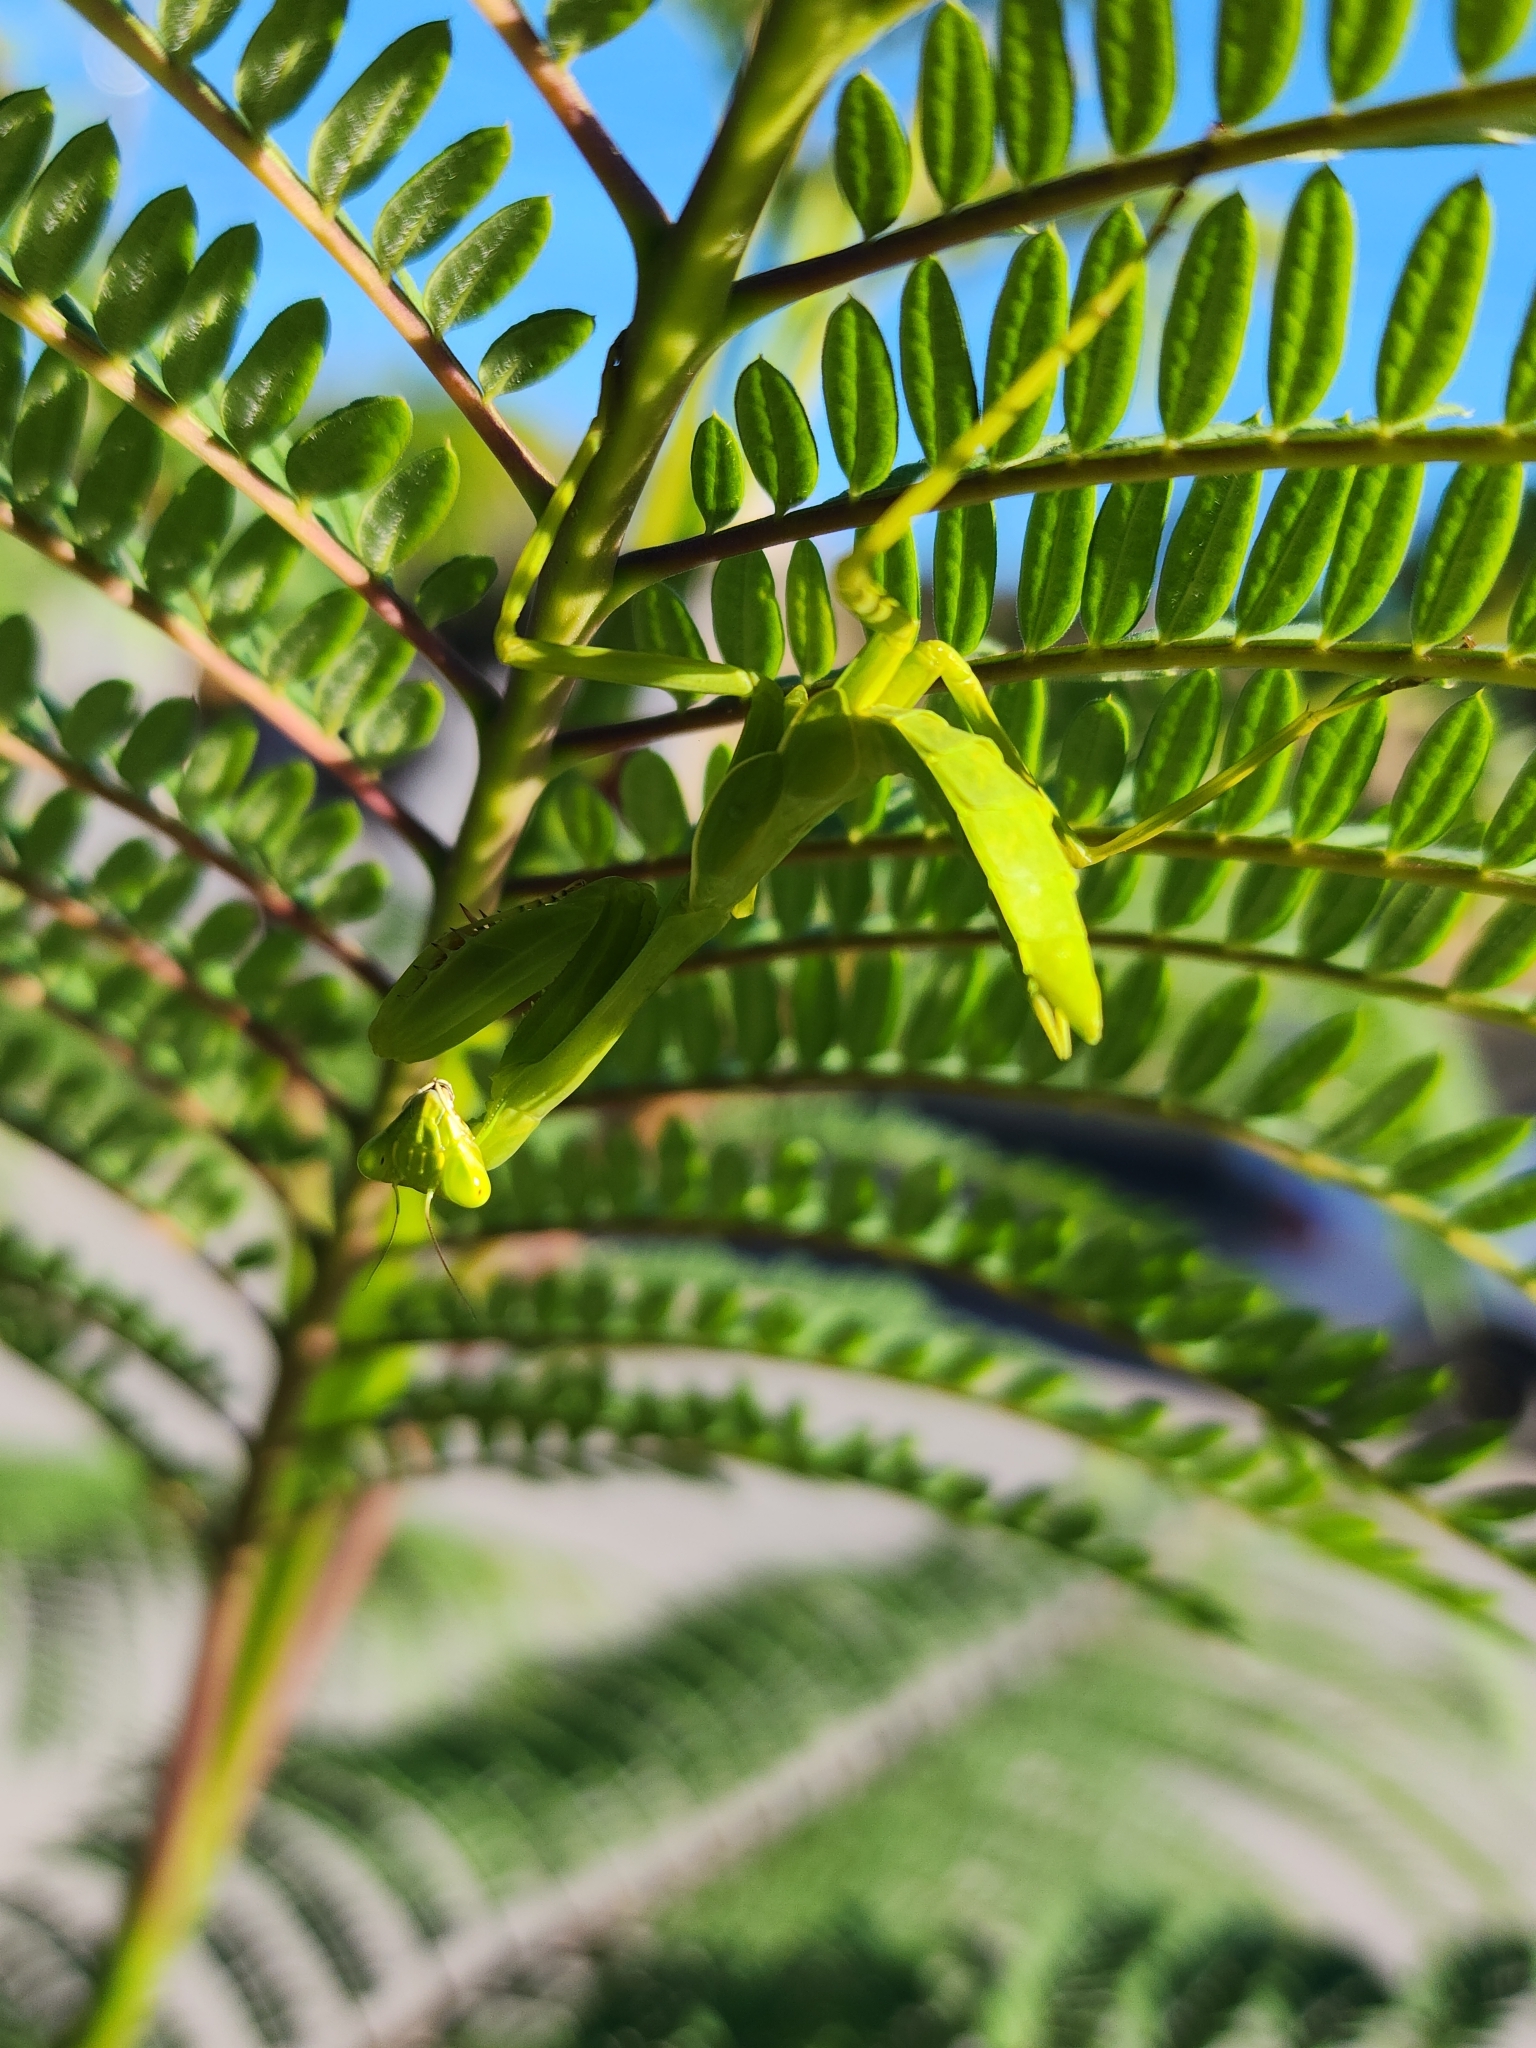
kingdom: Animalia
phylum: Arthropoda
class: Insecta
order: Mantodea
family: Mantidae
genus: Stagmatoptera
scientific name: Stagmatoptera hyaloptera
